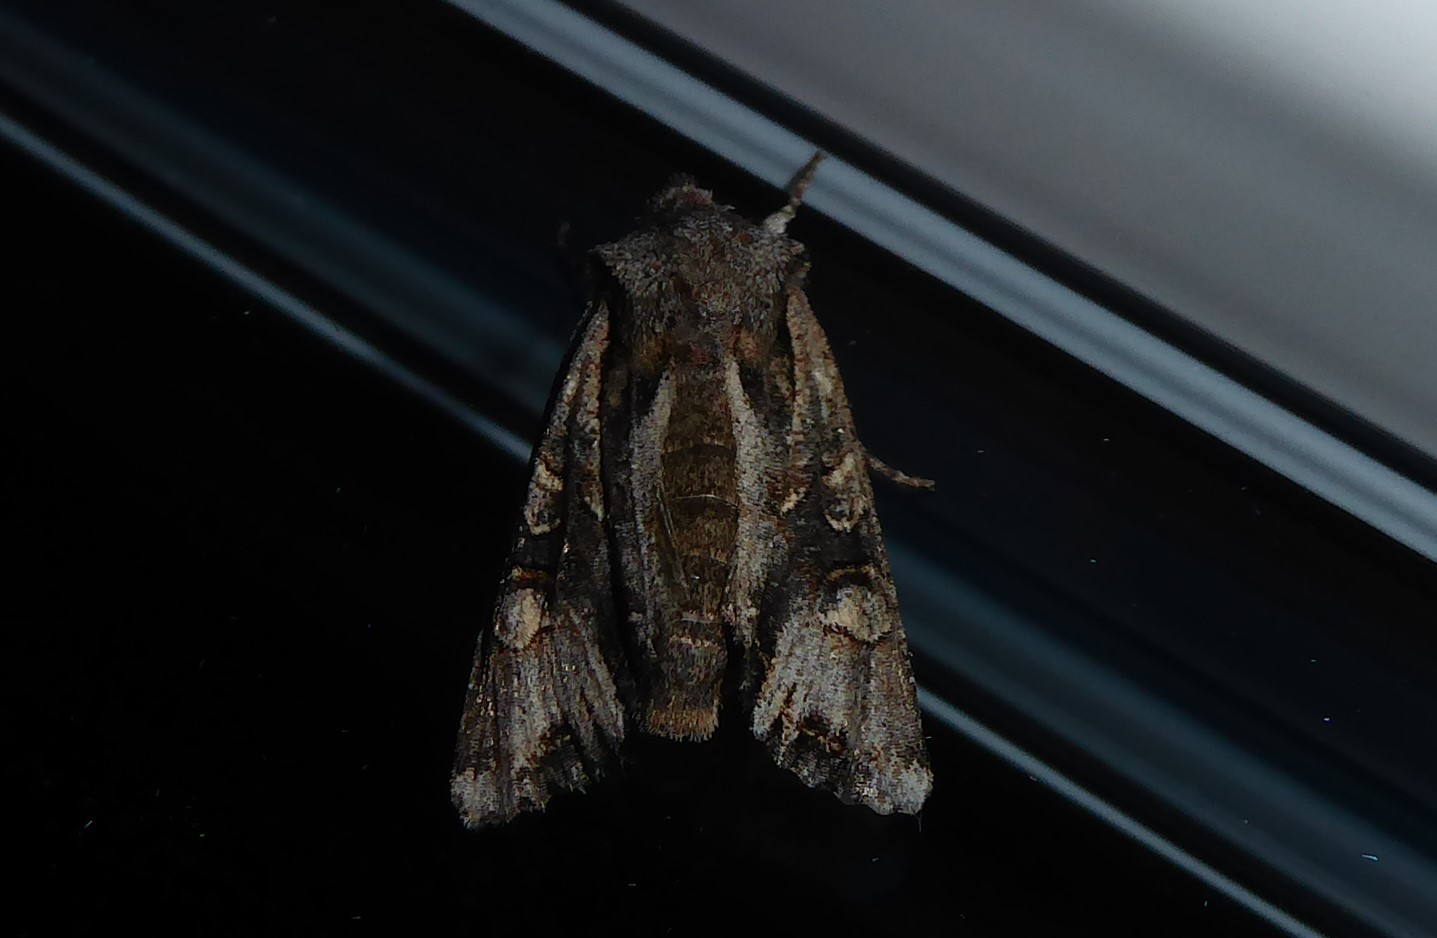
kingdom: Animalia
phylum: Arthropoda
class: Insecta
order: Lepidoptera
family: Noctuidae
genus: Ichneutica
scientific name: Ichneutica
